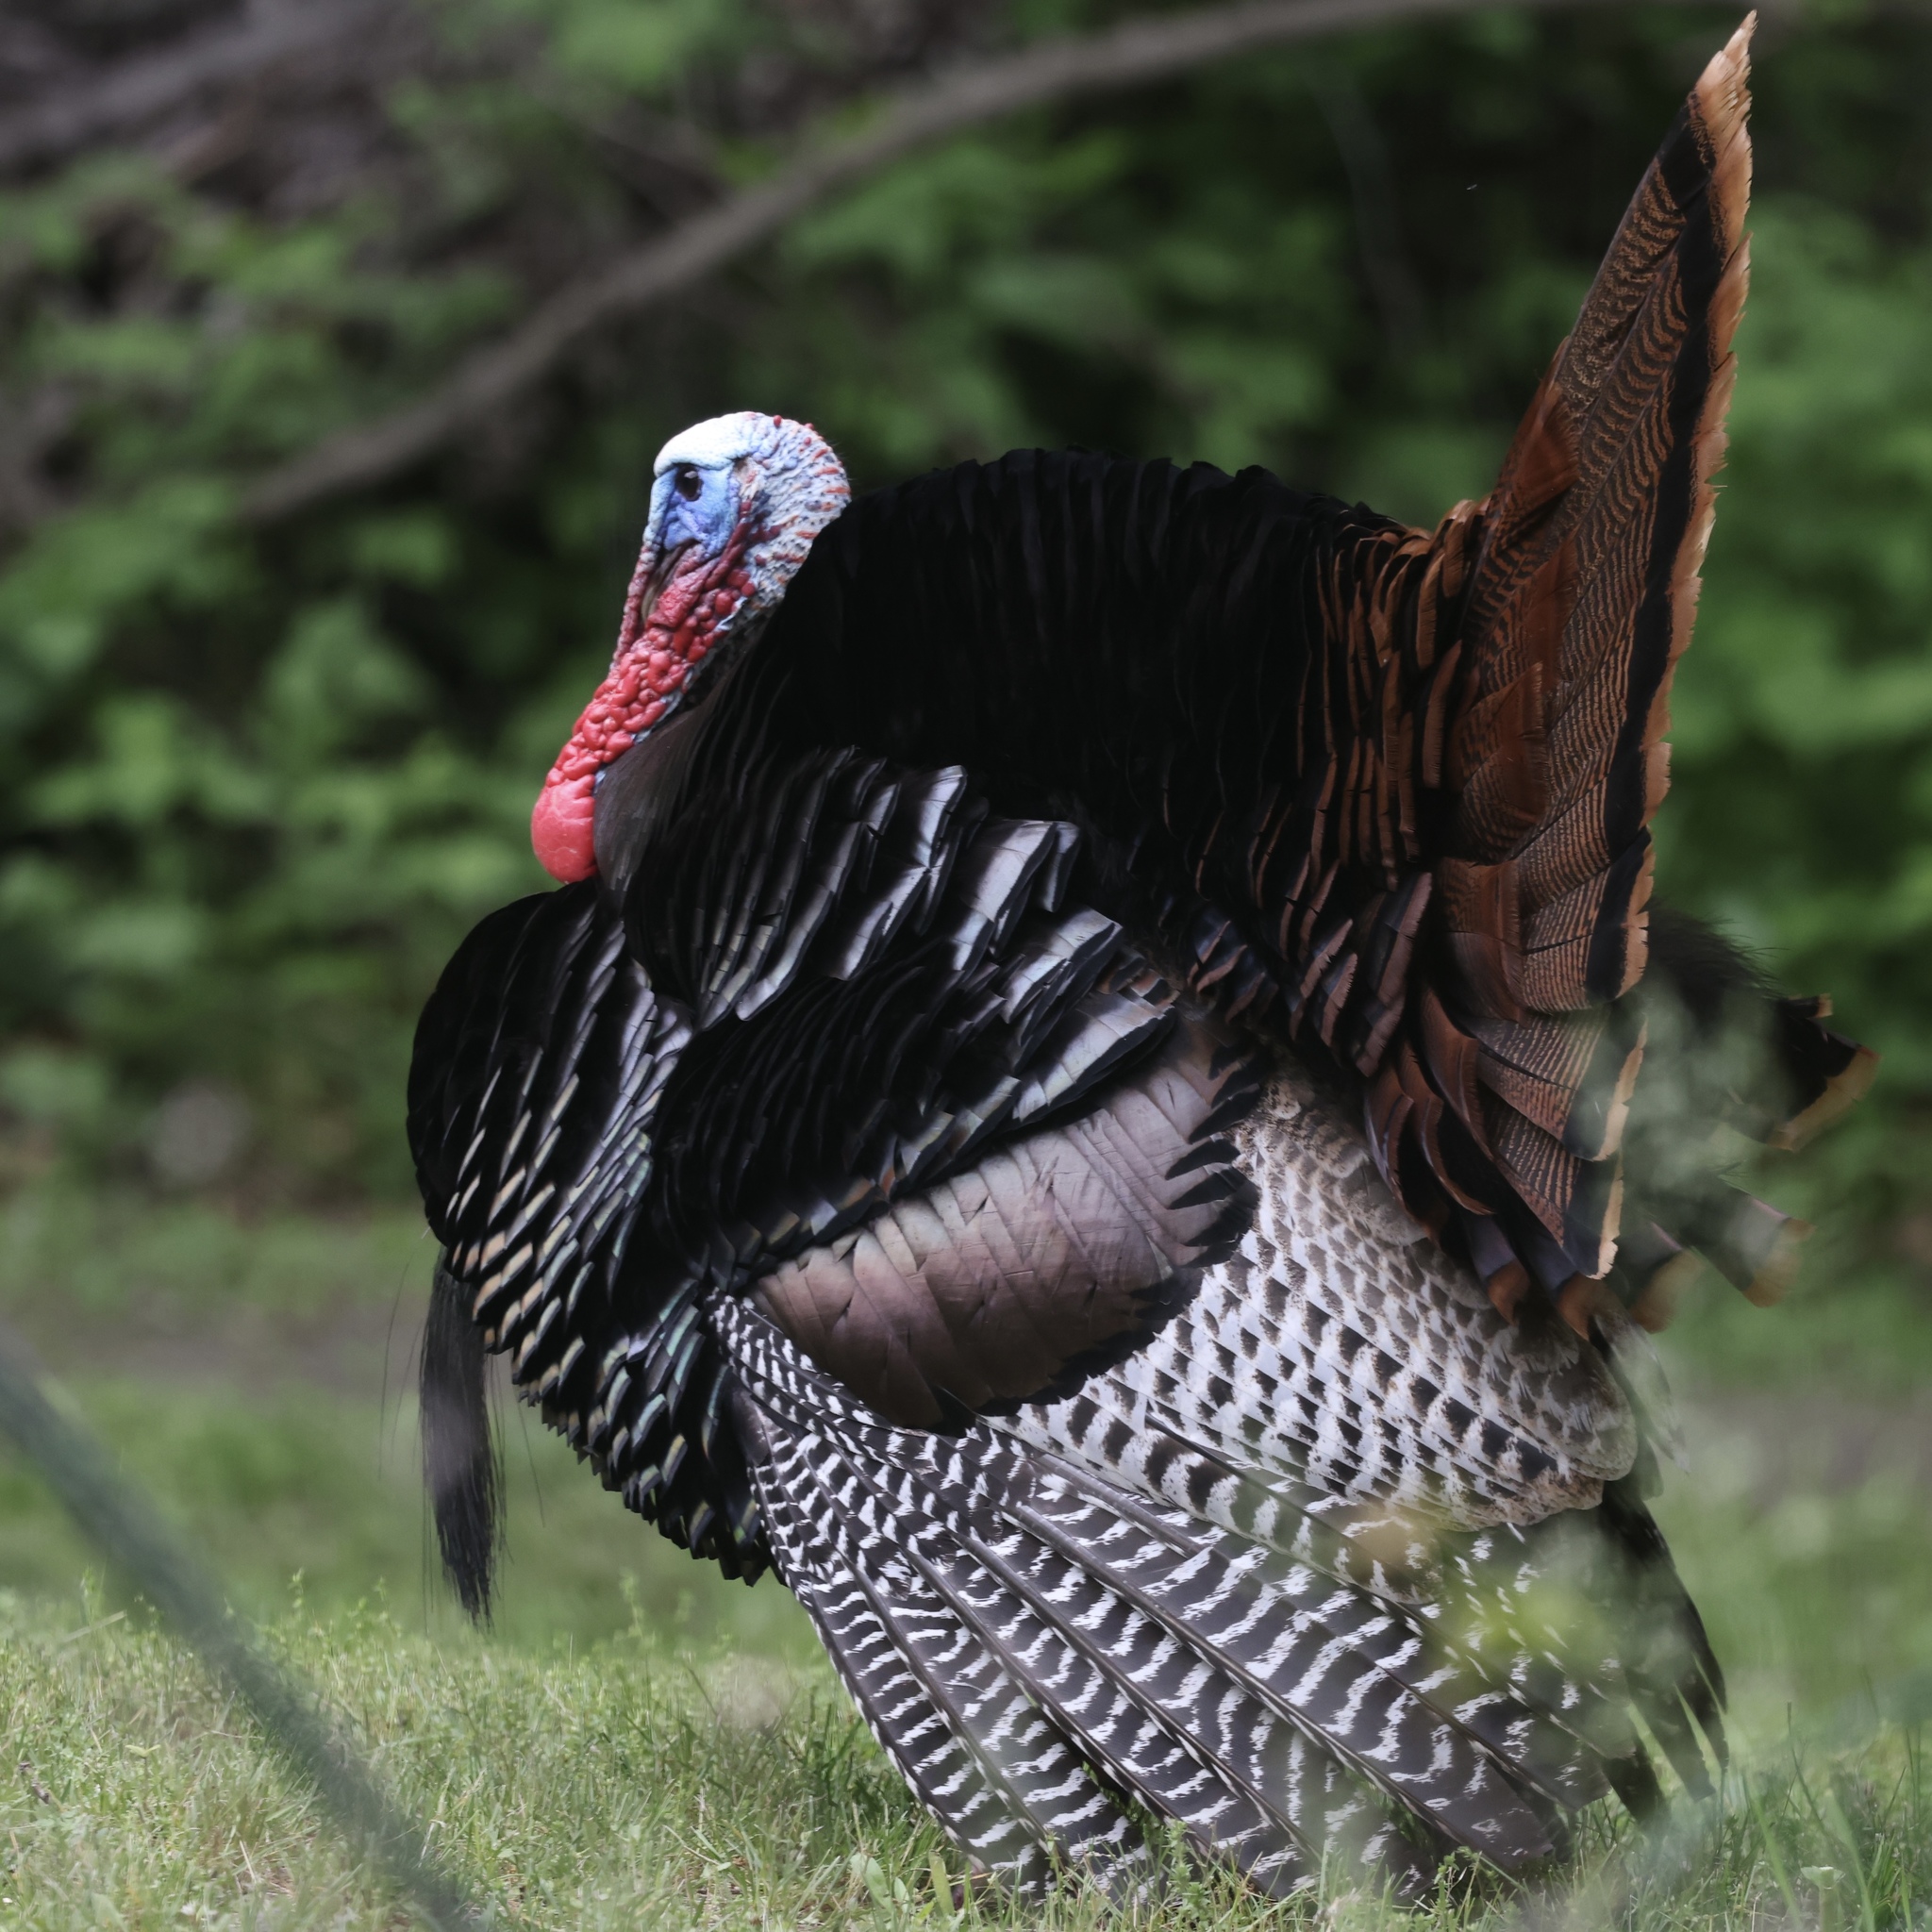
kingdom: Animalia
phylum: Chordata
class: Aves
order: Galliformes
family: Phasianidae
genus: Meleagris
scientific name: Meleagris gallopavo
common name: Wild turkey
